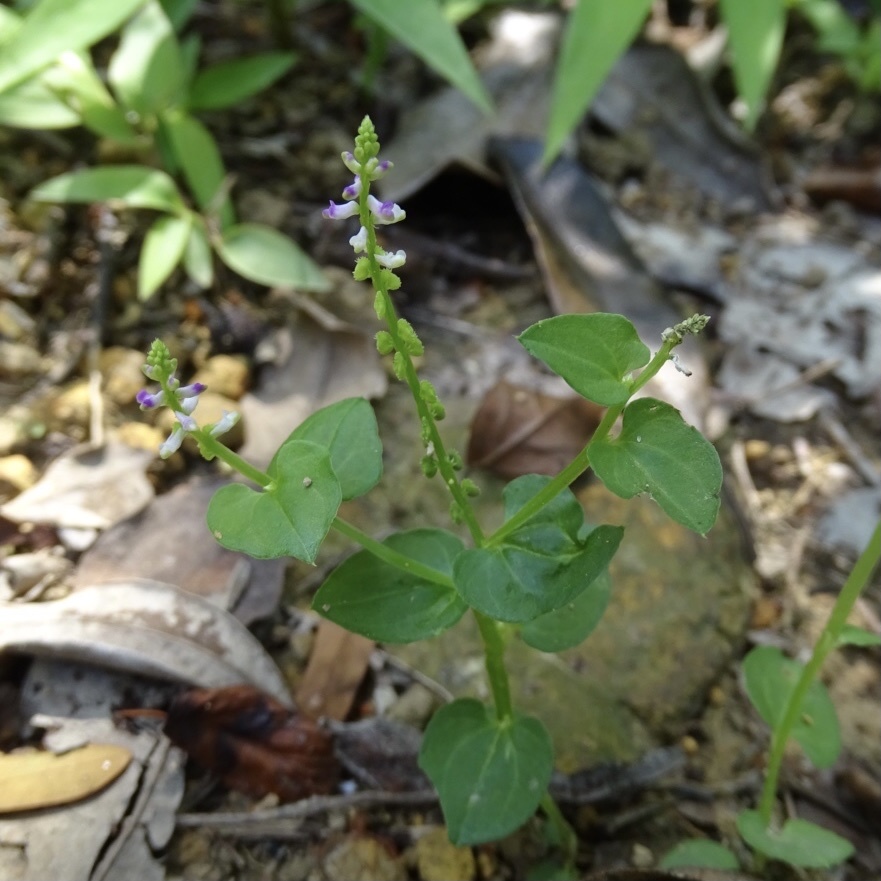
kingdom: Plantae
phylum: Tracheophyta
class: Magnoliopsida
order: Fabales
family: Polygalaceae
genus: Salomonia
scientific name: Salomonia cantoniensis
